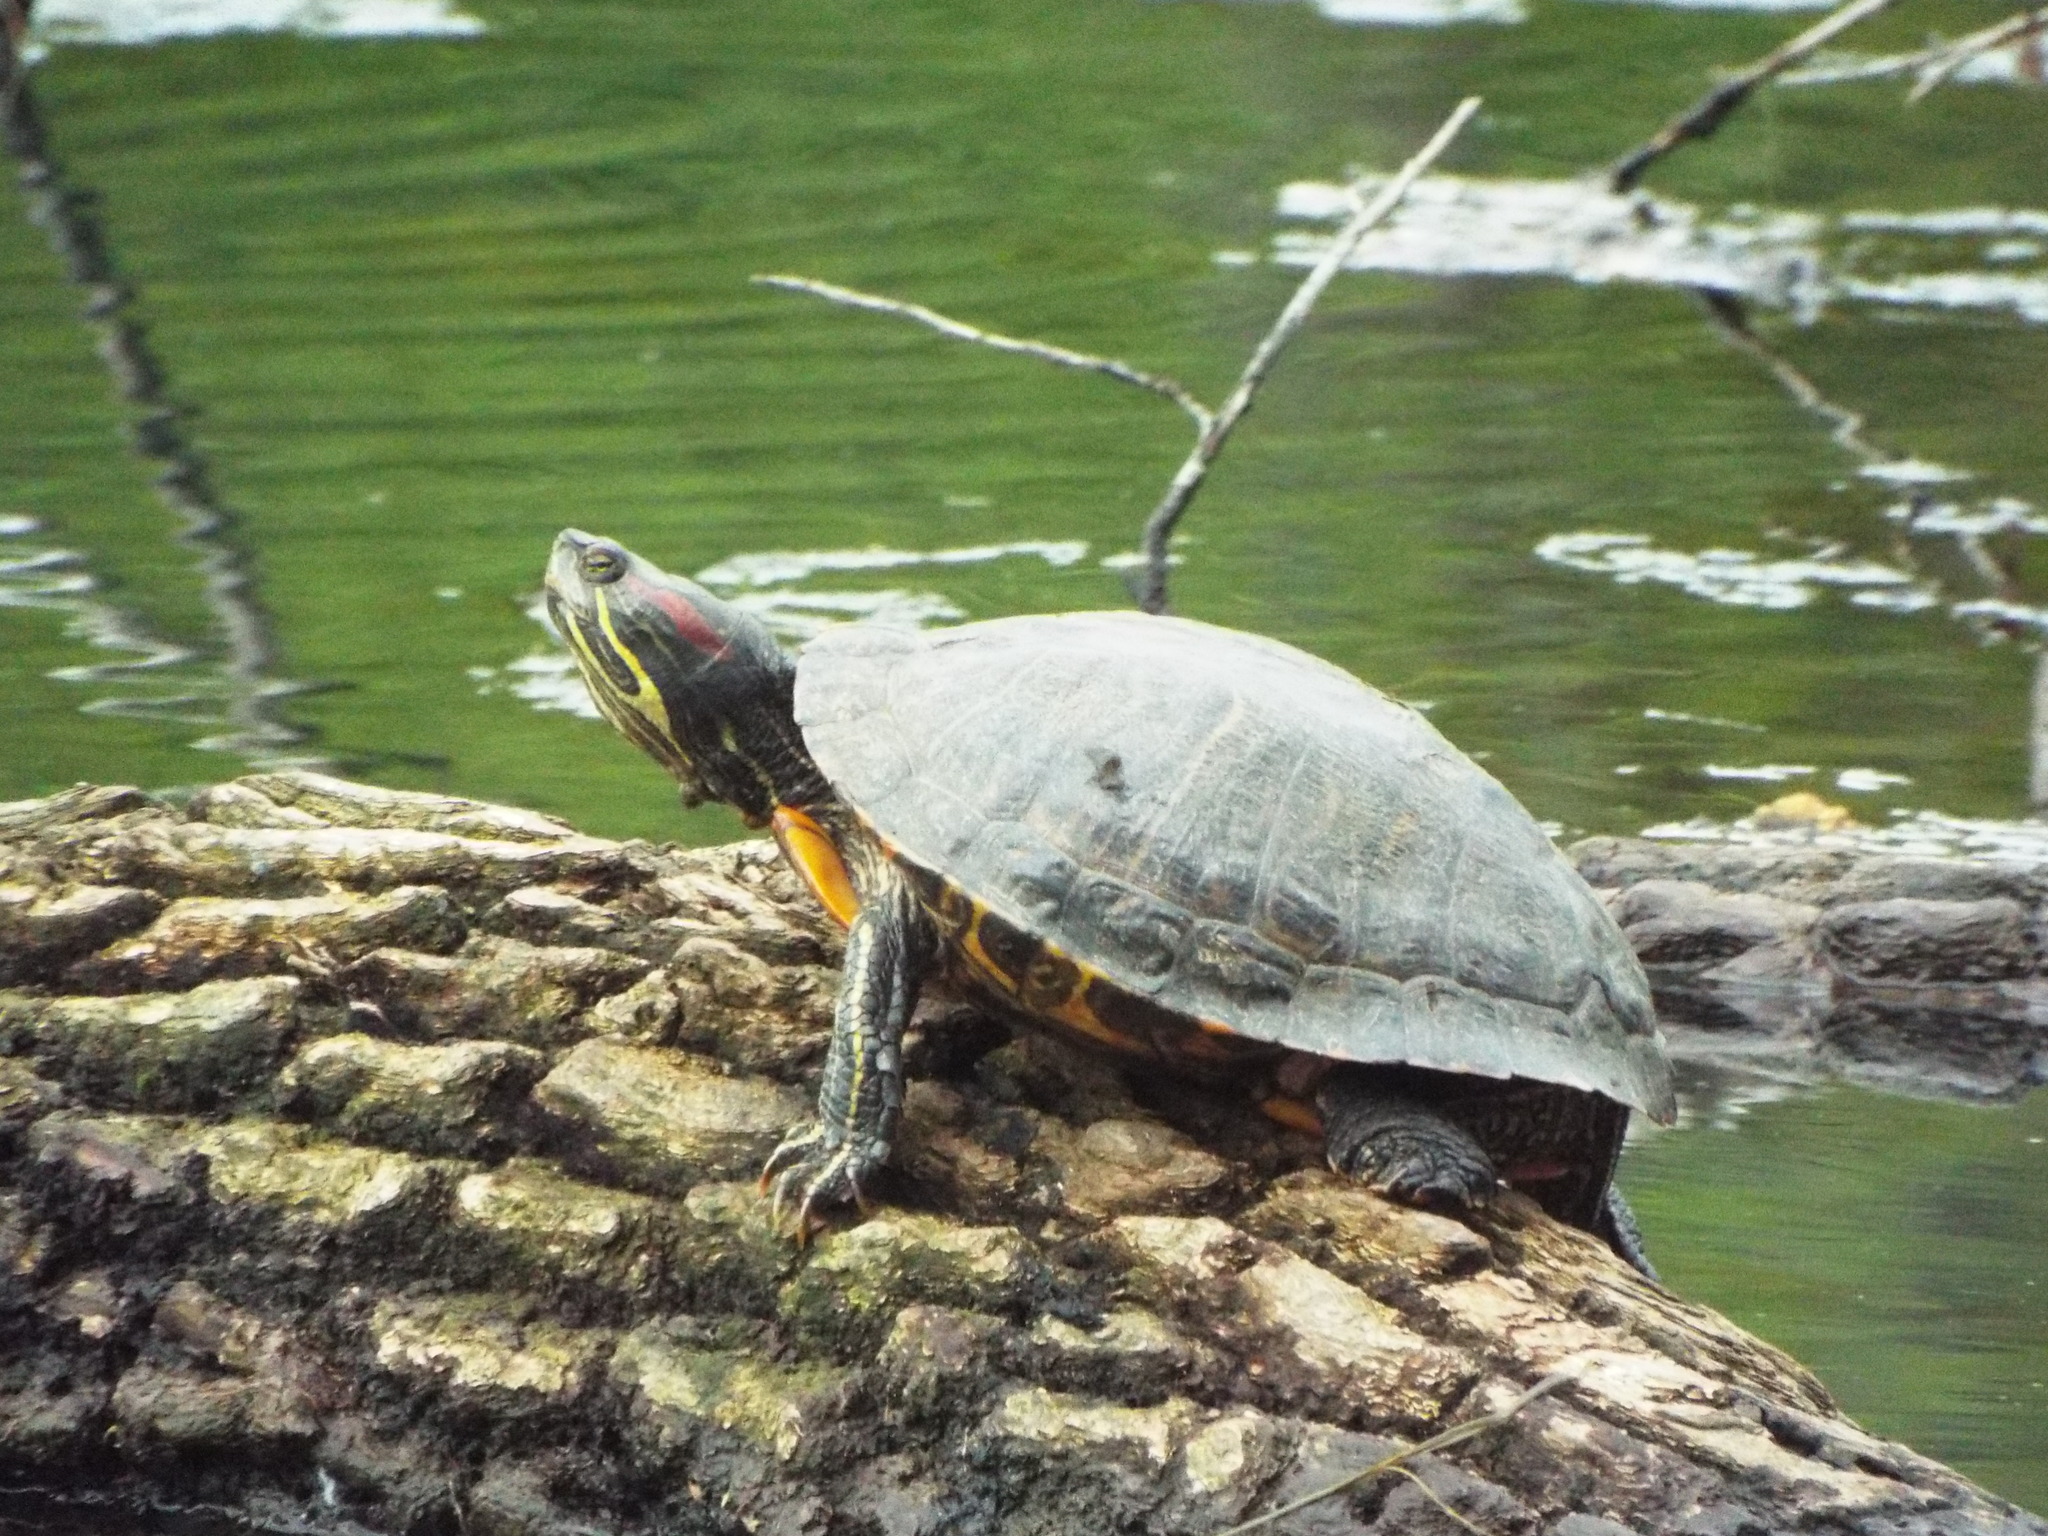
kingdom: Animalia
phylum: Chordata
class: Testudines
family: Emydidae
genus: Trachemys
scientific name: Trachemys scripta
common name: Slider
